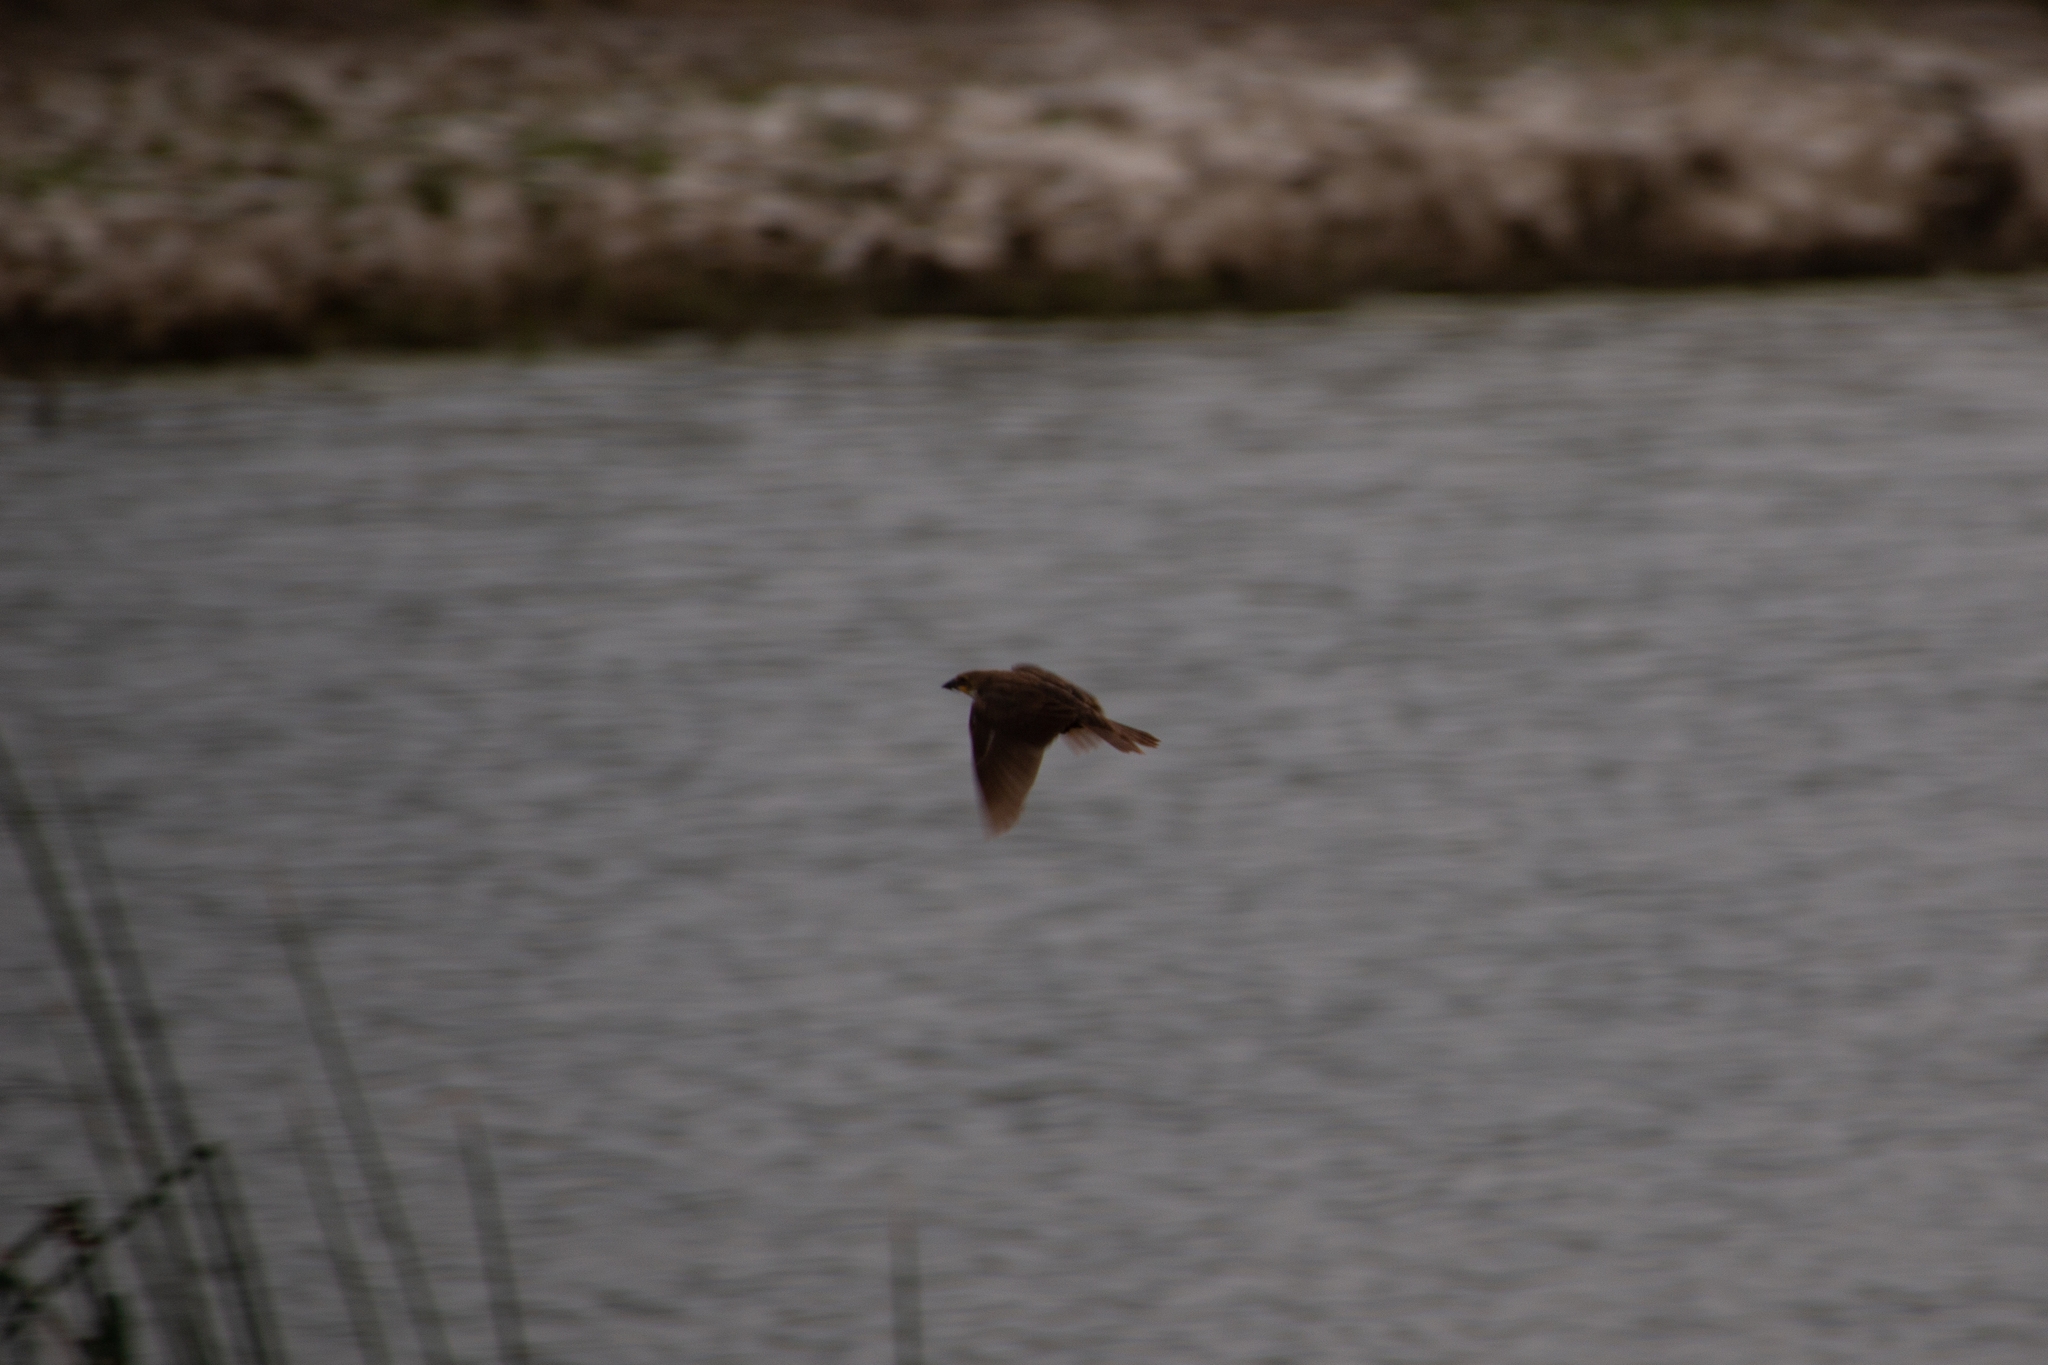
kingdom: Animalia
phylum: Chordata
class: Aves
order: Passeriformes
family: Icteridae
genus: Xanthocephalus
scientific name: Xanthocephalus xanthocephalus
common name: Yellow-headed blackbird
